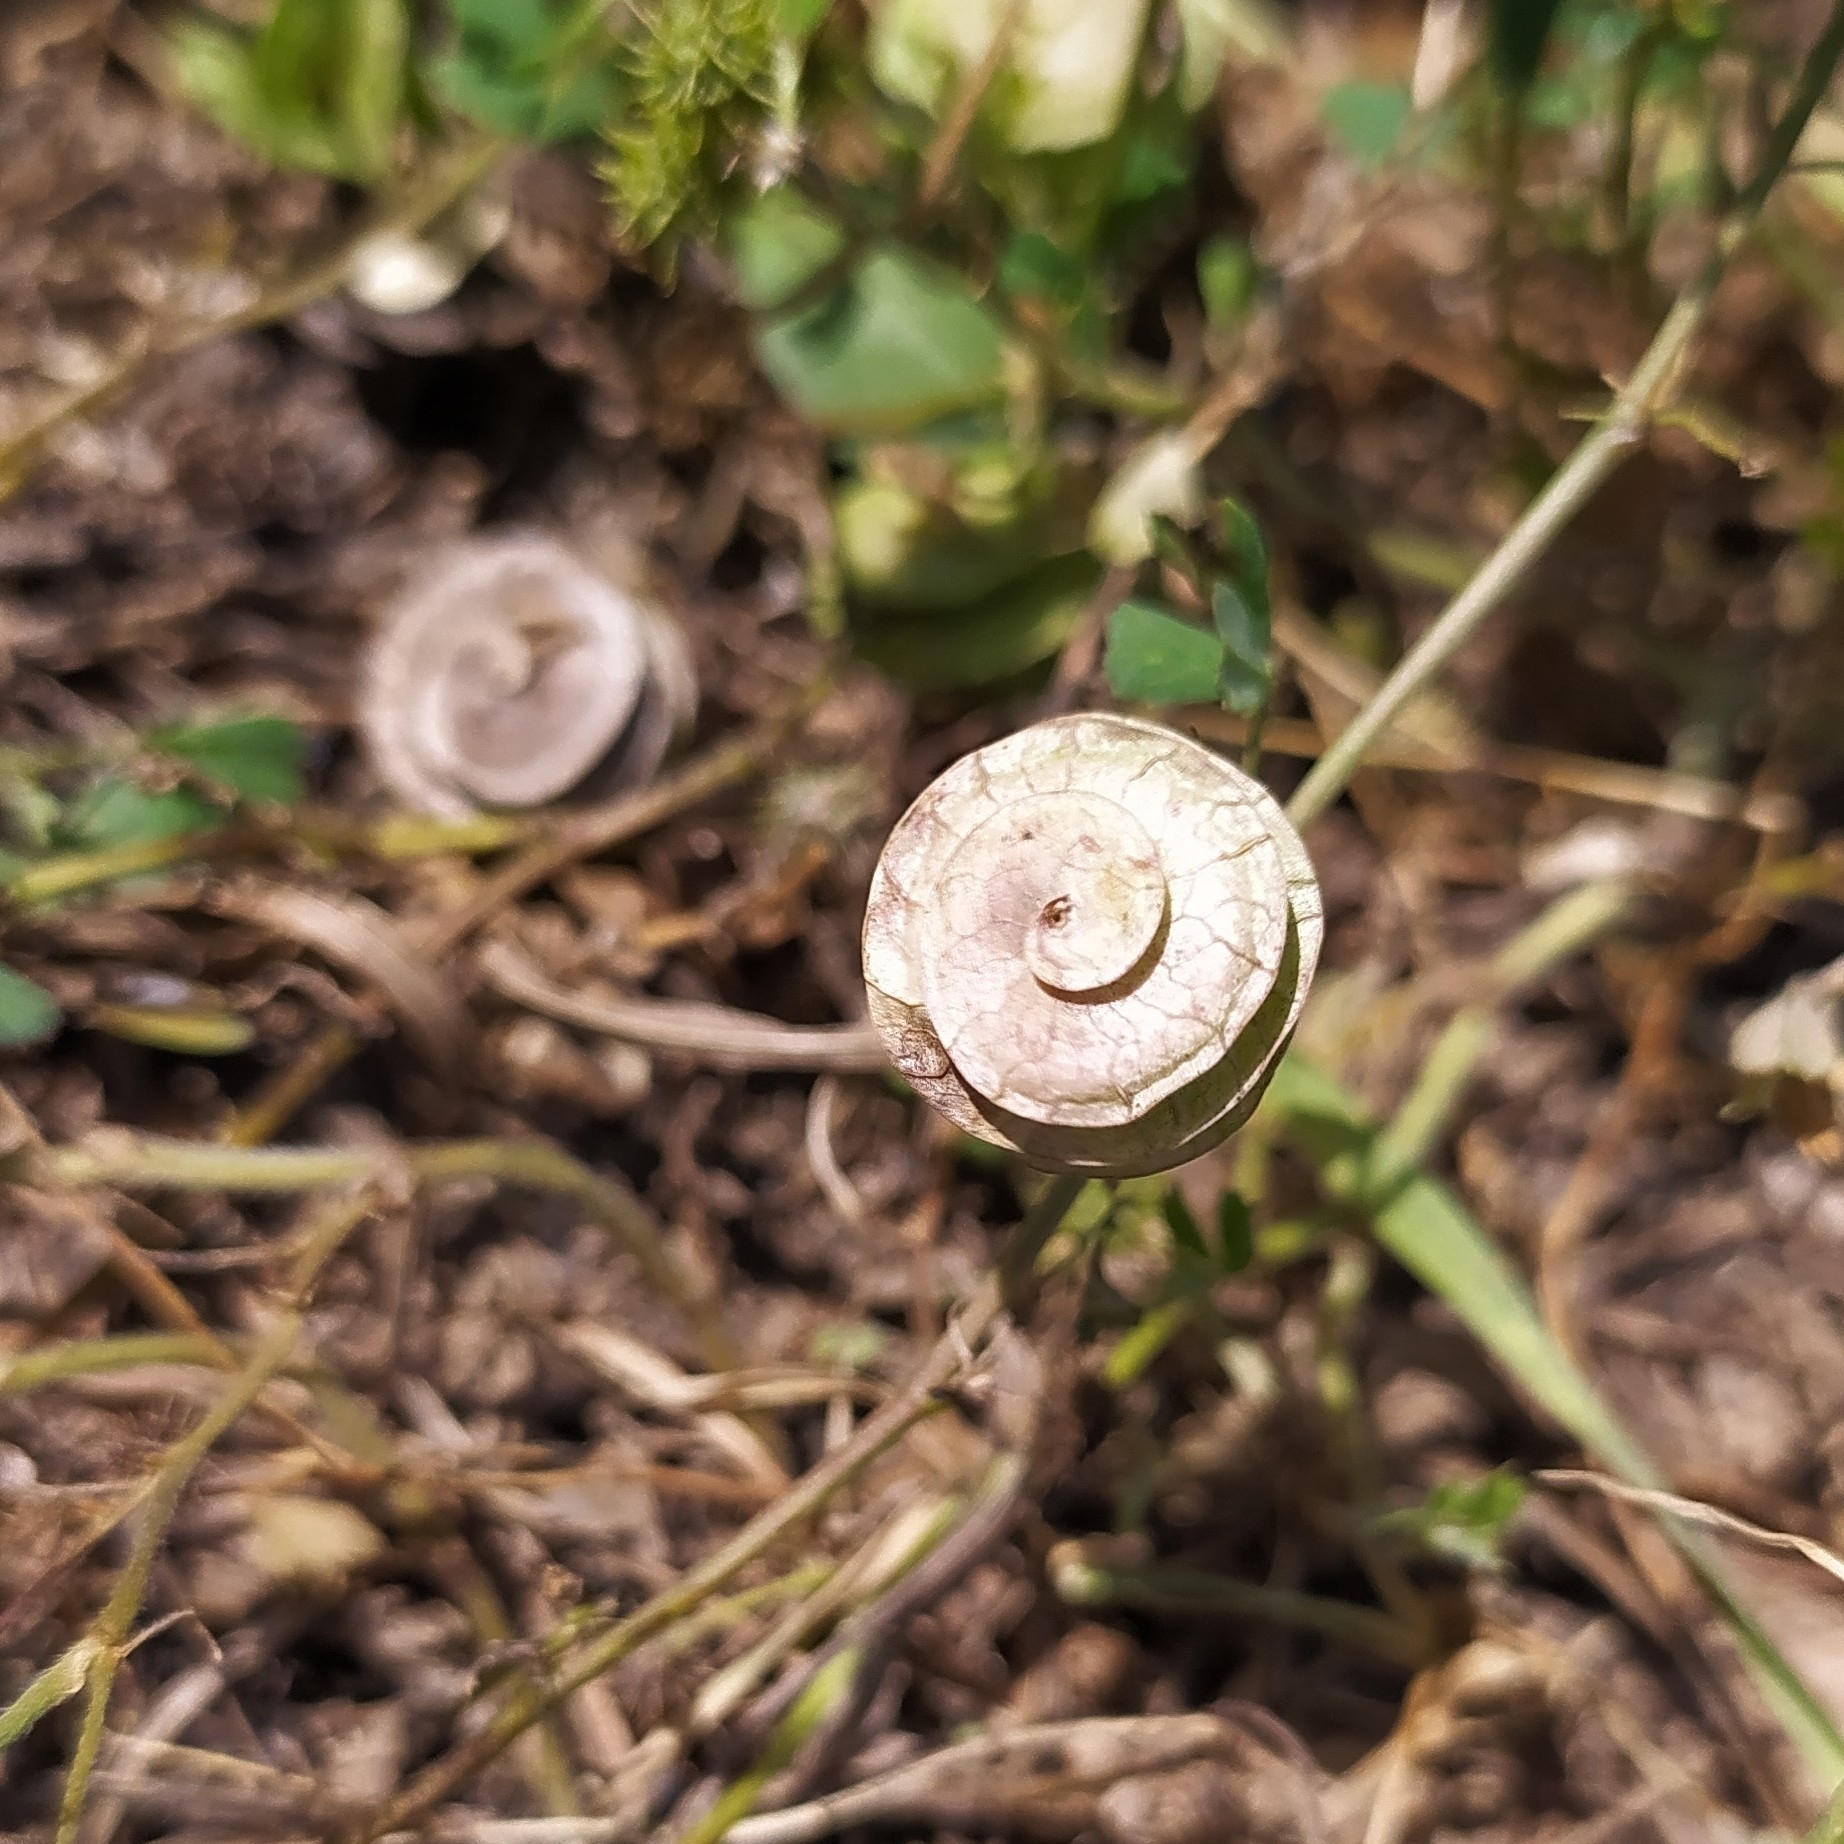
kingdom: Plantae
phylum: Tracheophyta
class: Magnoliopsida
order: Fabales
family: Fabaceae
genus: Medicago
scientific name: Medicago orbicularis
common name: Button medick
